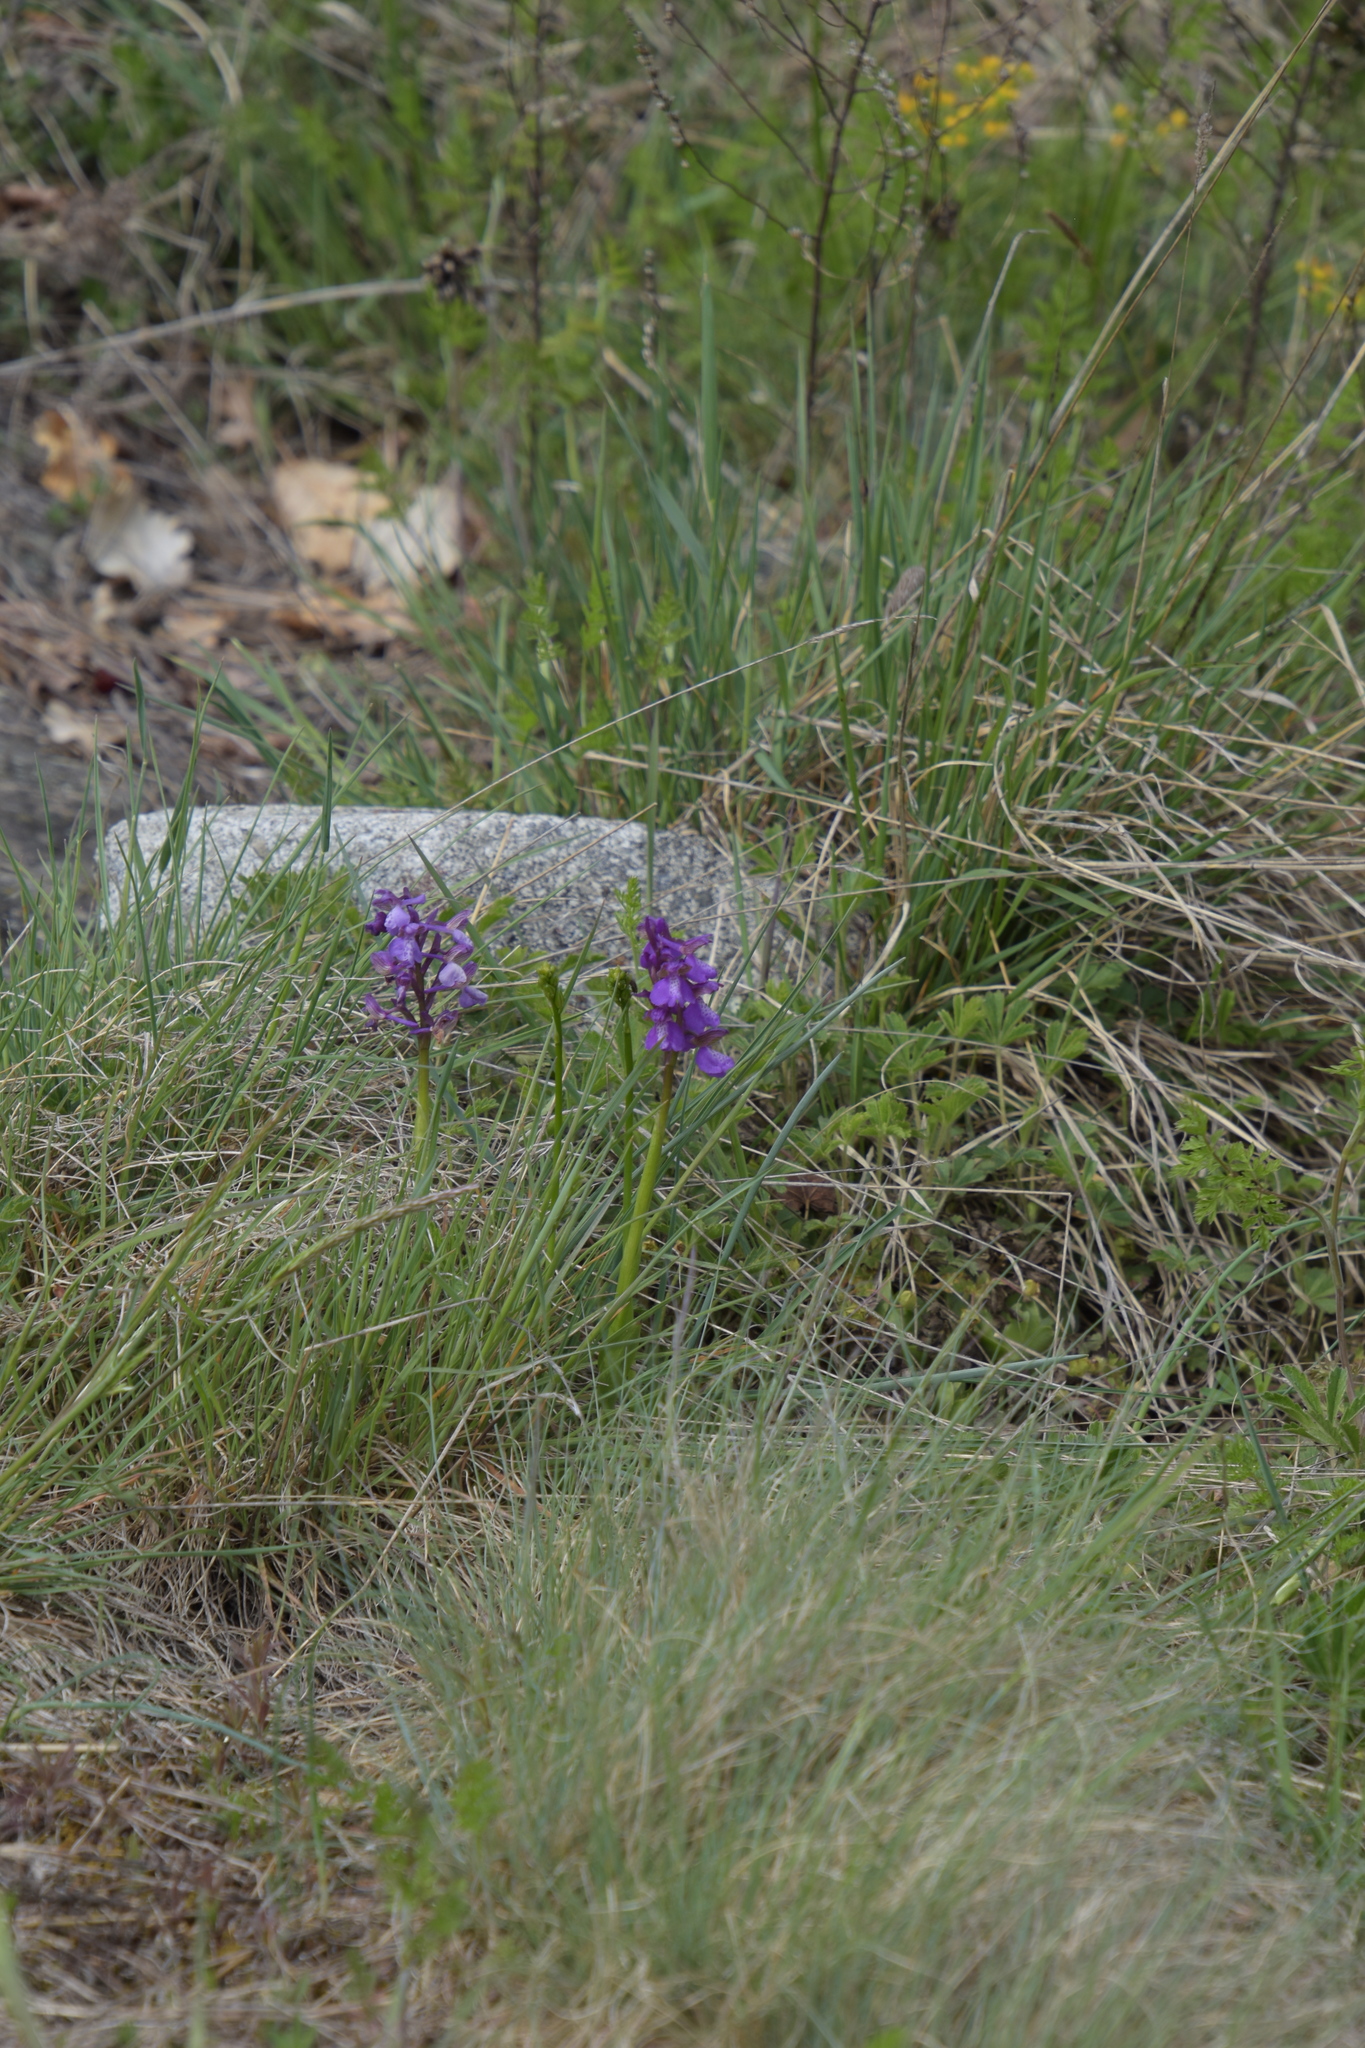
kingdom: Plantae
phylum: Tracheophyta
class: Liliopsida
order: Asparagales
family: Orchidaceae
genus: Anacamptis
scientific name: Anacamptis morio
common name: Green-winged orchid
